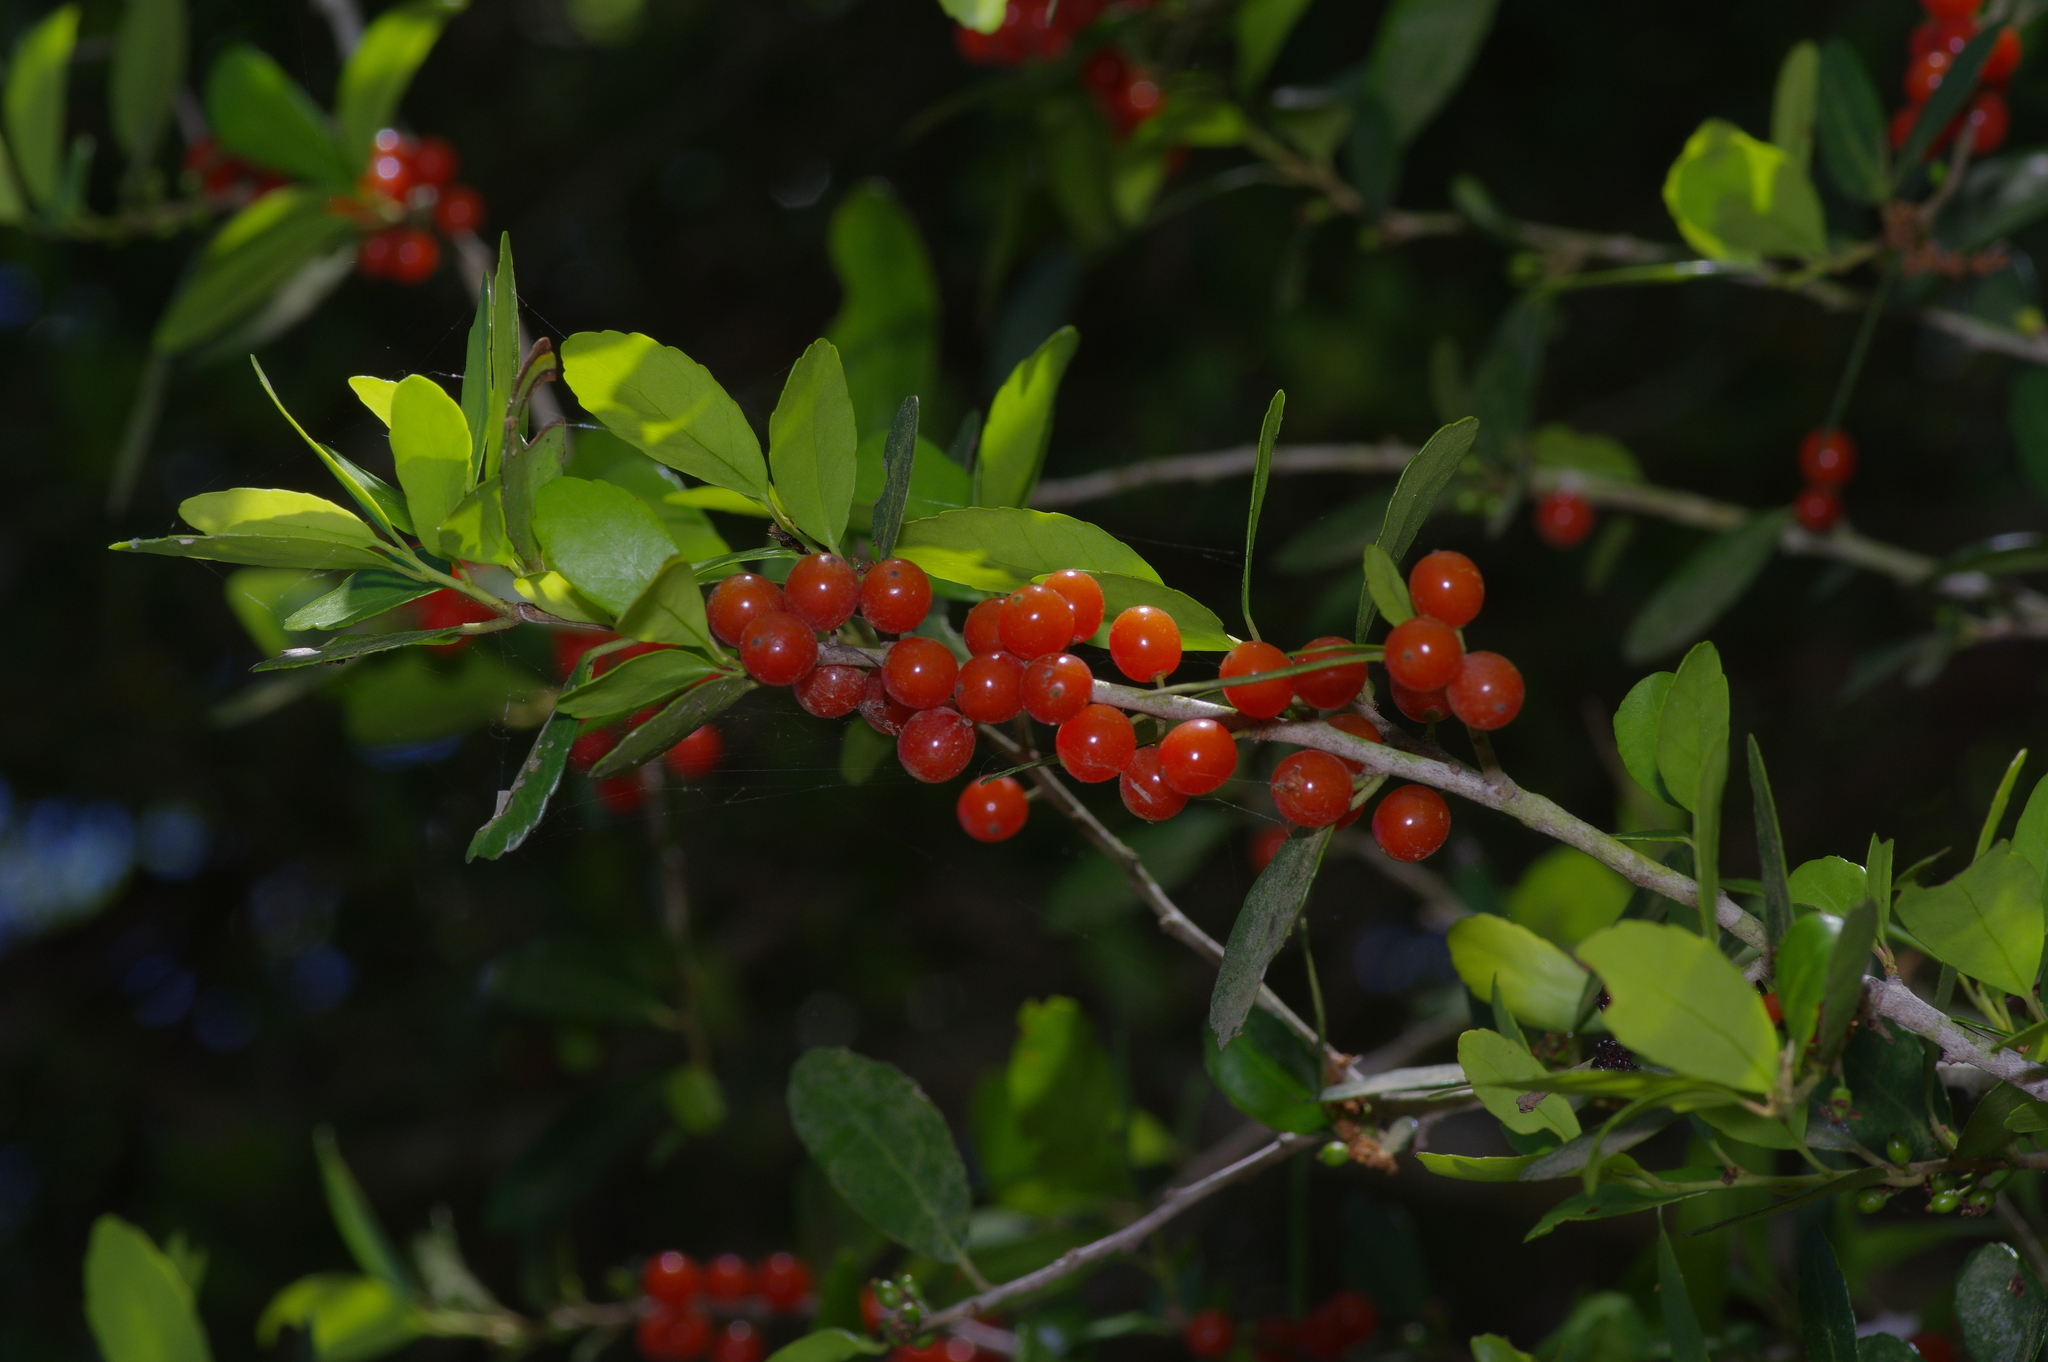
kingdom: Plantae
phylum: Tracheophyta
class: Magnoliopsida
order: Aquifoliales
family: Aquifoliaceae
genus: Ilex
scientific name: Ilex vomitoria
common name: Yaupon holly
